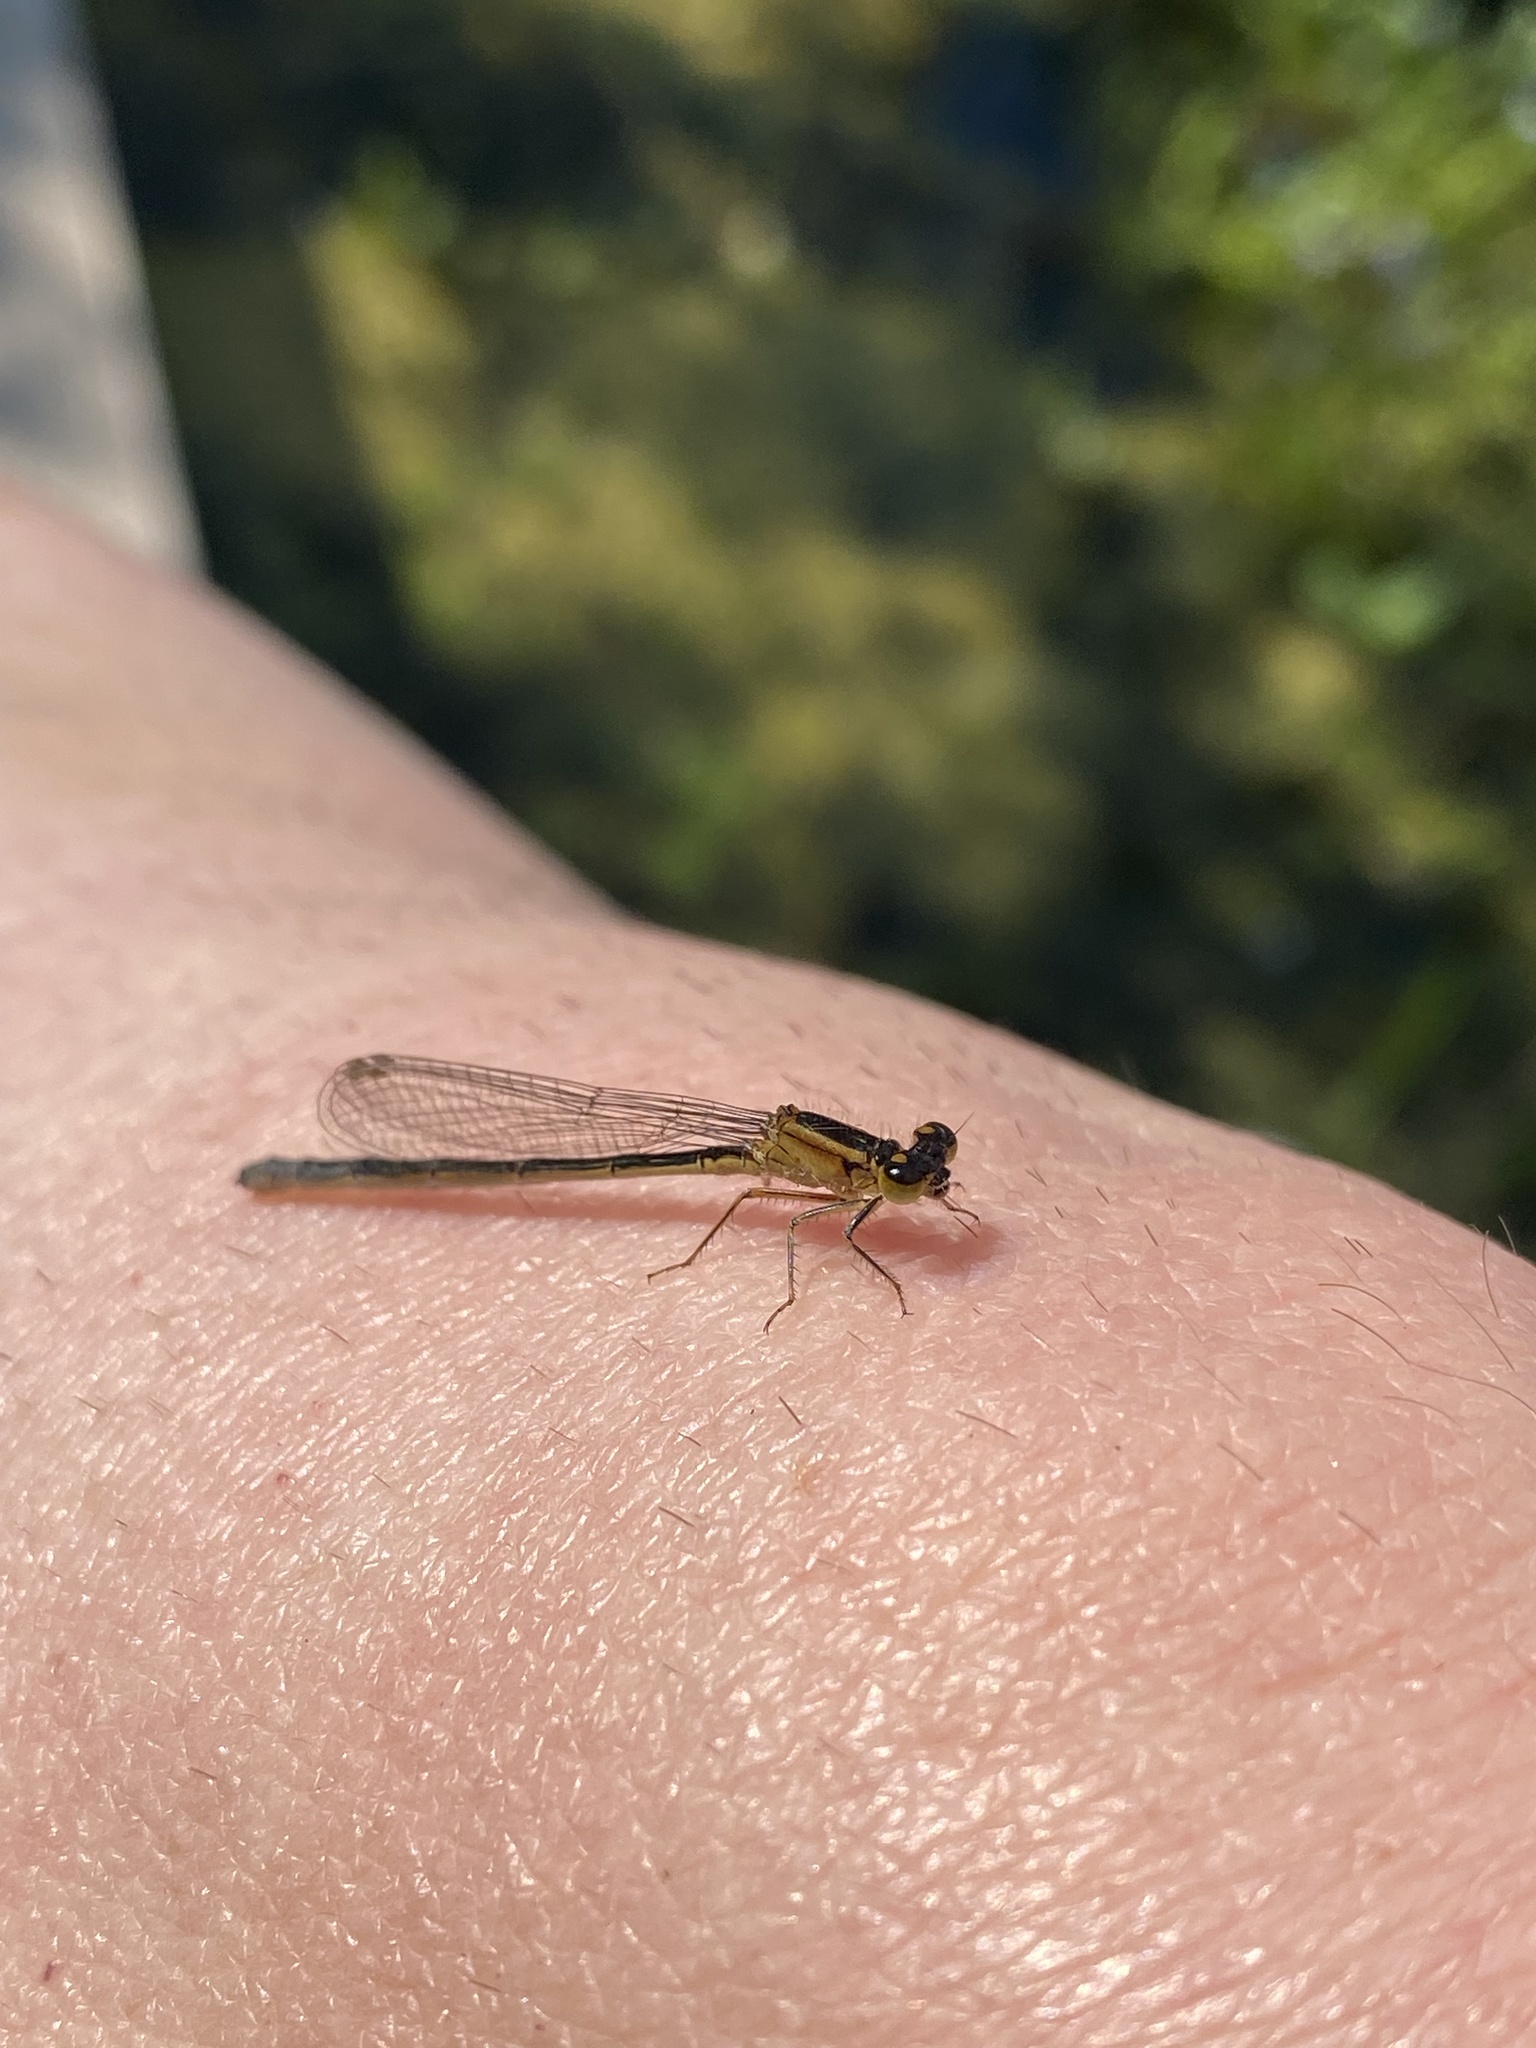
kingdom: Animalia
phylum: Arthropoda
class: Insecta
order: Odonata
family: Coenagrionidae
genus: Ischnura
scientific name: Ischnura elegans
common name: Blue-tailed damselfly
